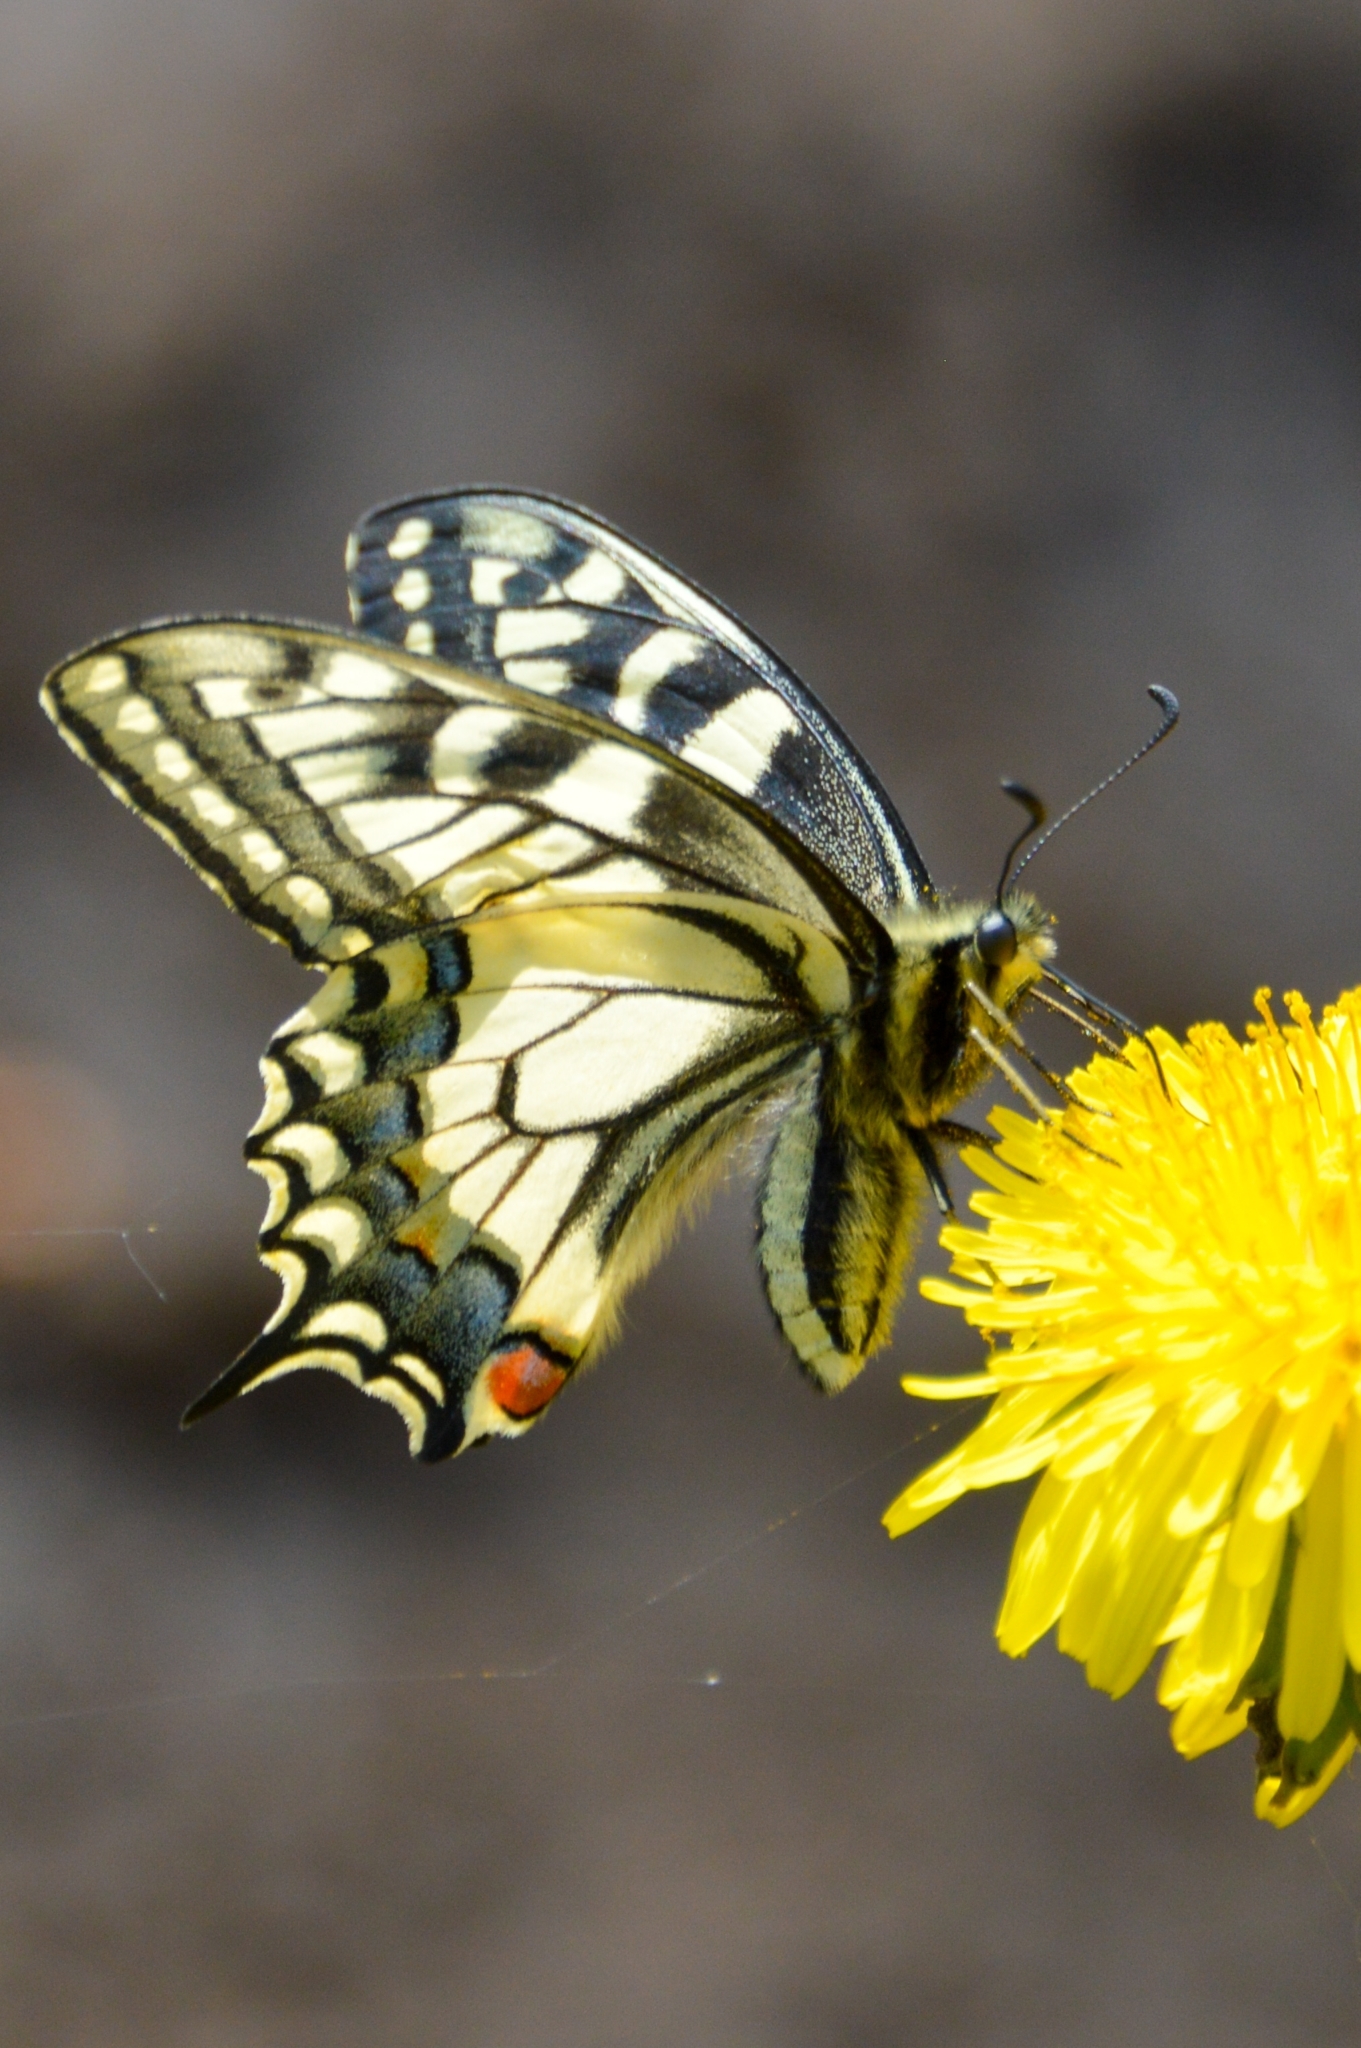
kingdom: Animalia
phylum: Arthropoda
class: Insecta
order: Lepidoptera
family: Papilionidae
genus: Papilio
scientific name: Papilio machaon
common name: Swallowtail
